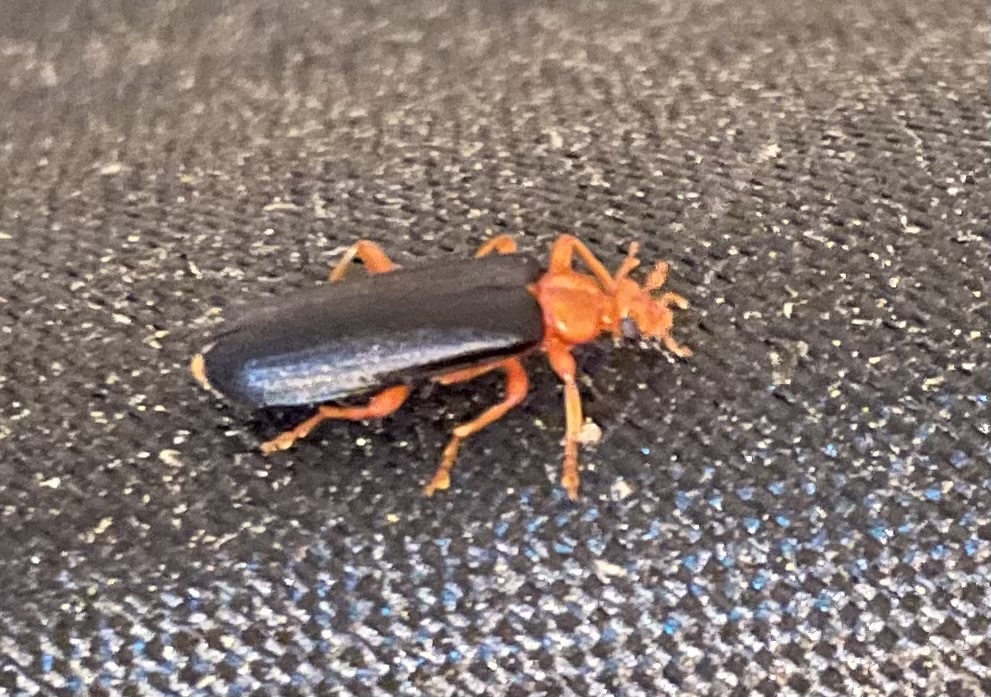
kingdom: Animalia
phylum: Arthropoda
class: Insecta
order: Coleoptera
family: Pyrochroidae
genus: Neopyrochroa
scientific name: Neopyrochroa flabellata
